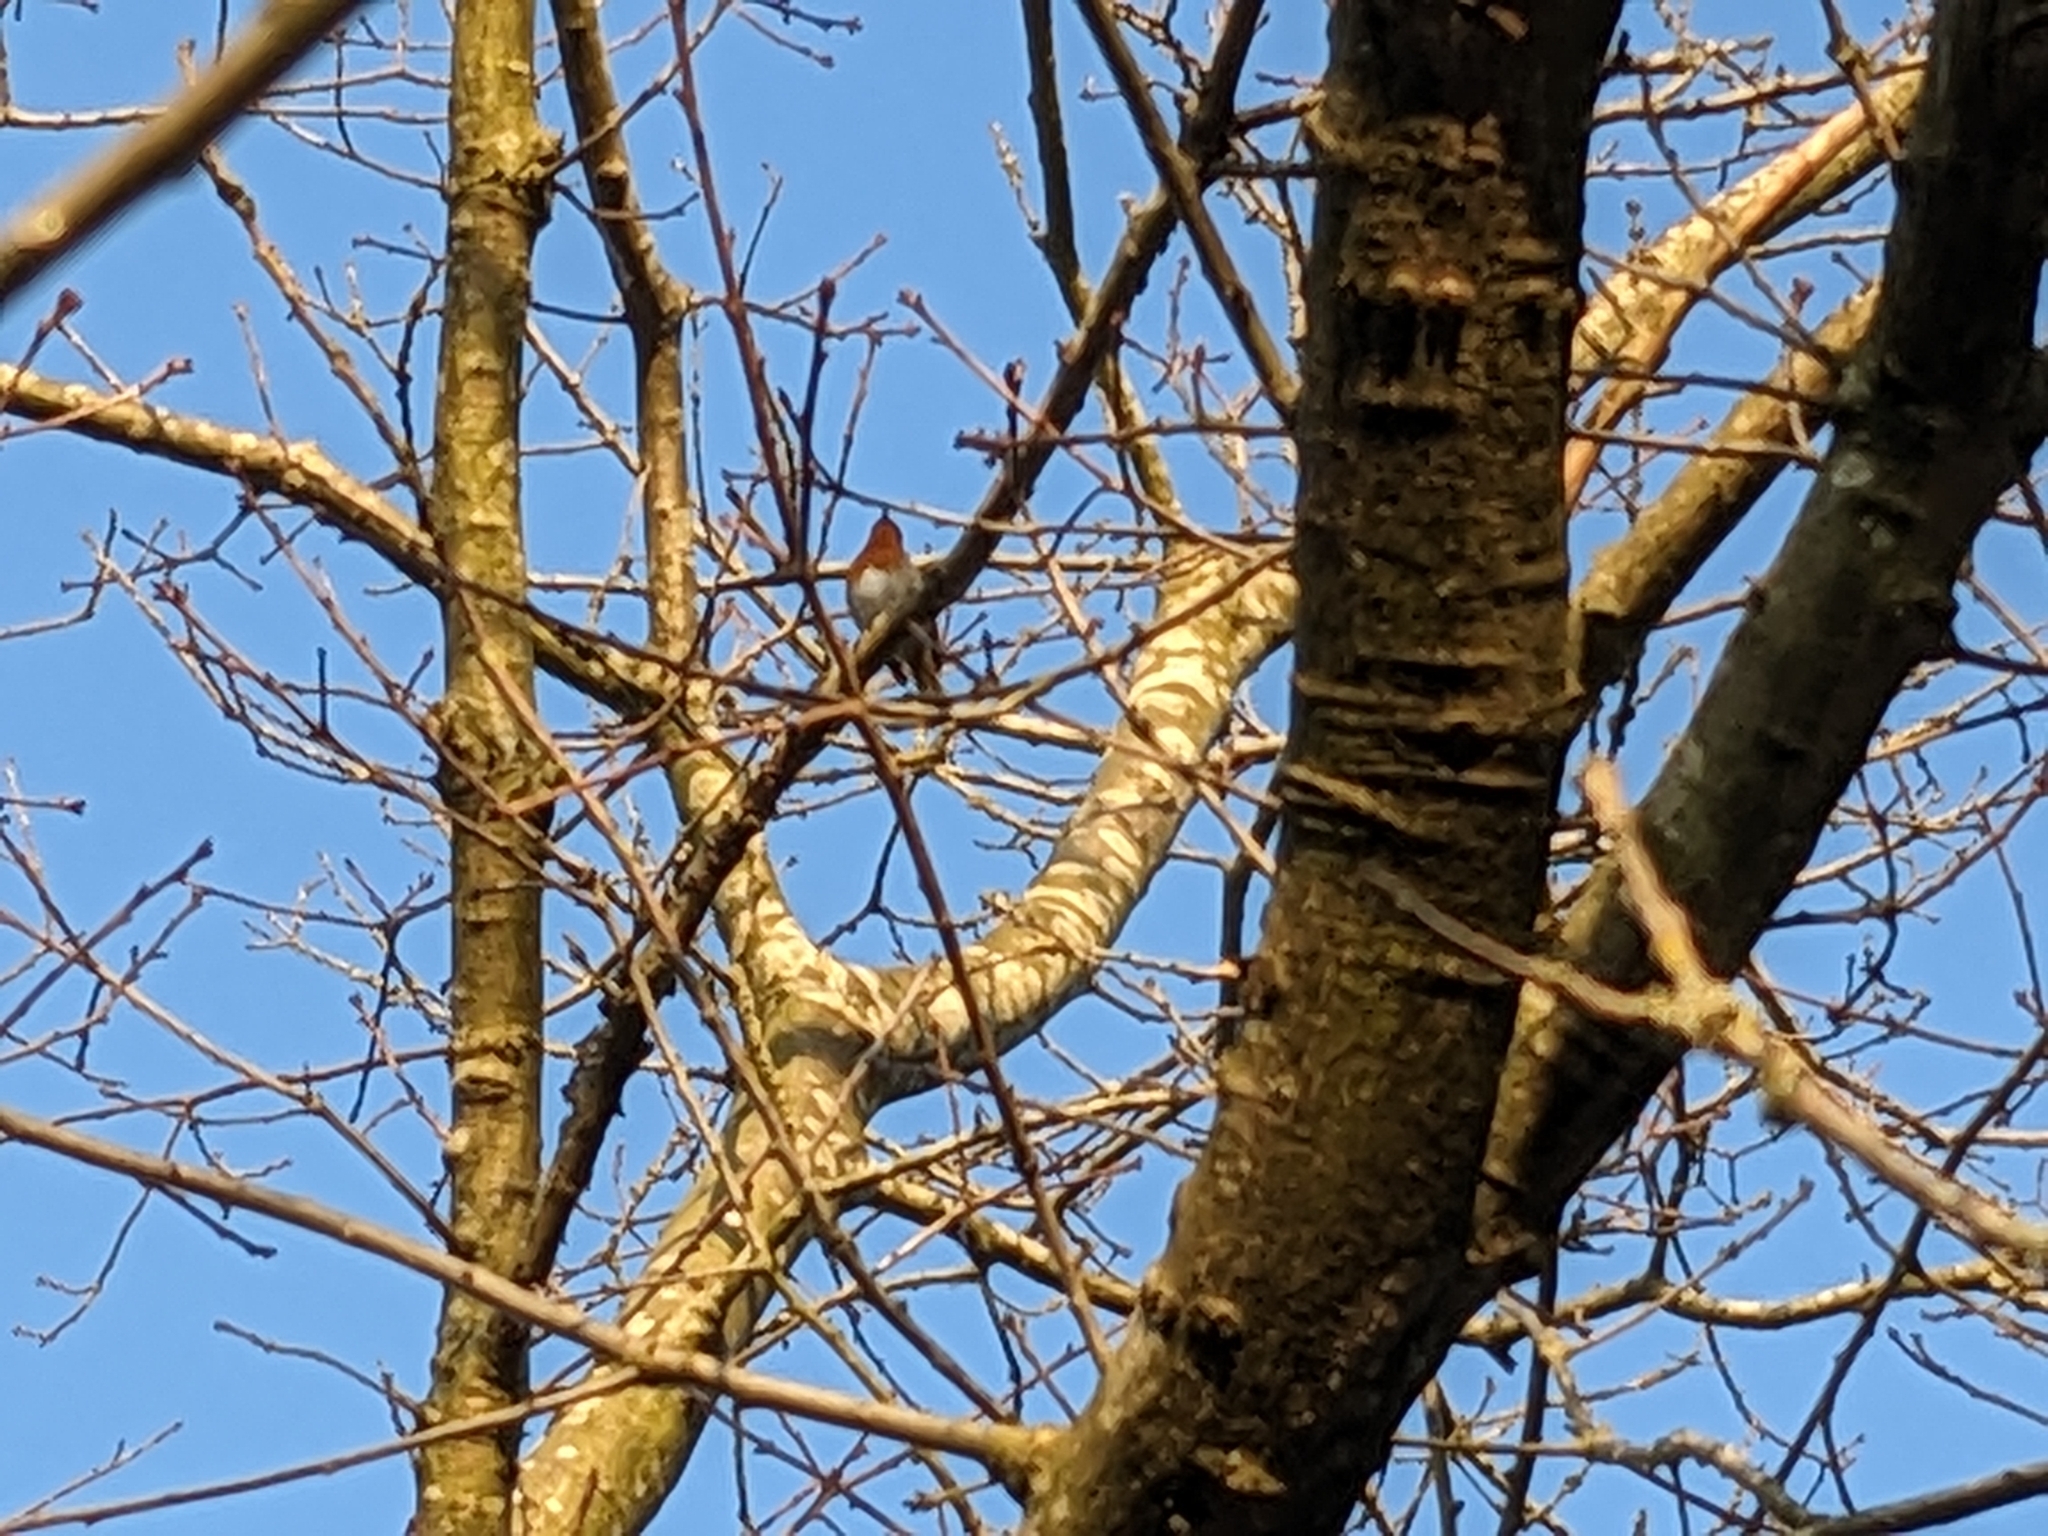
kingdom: Animalia
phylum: Chordata
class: Aves
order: Passeriformes
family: Muscicapidae
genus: Erithacus
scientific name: Erithacus rubecula
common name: European robin
